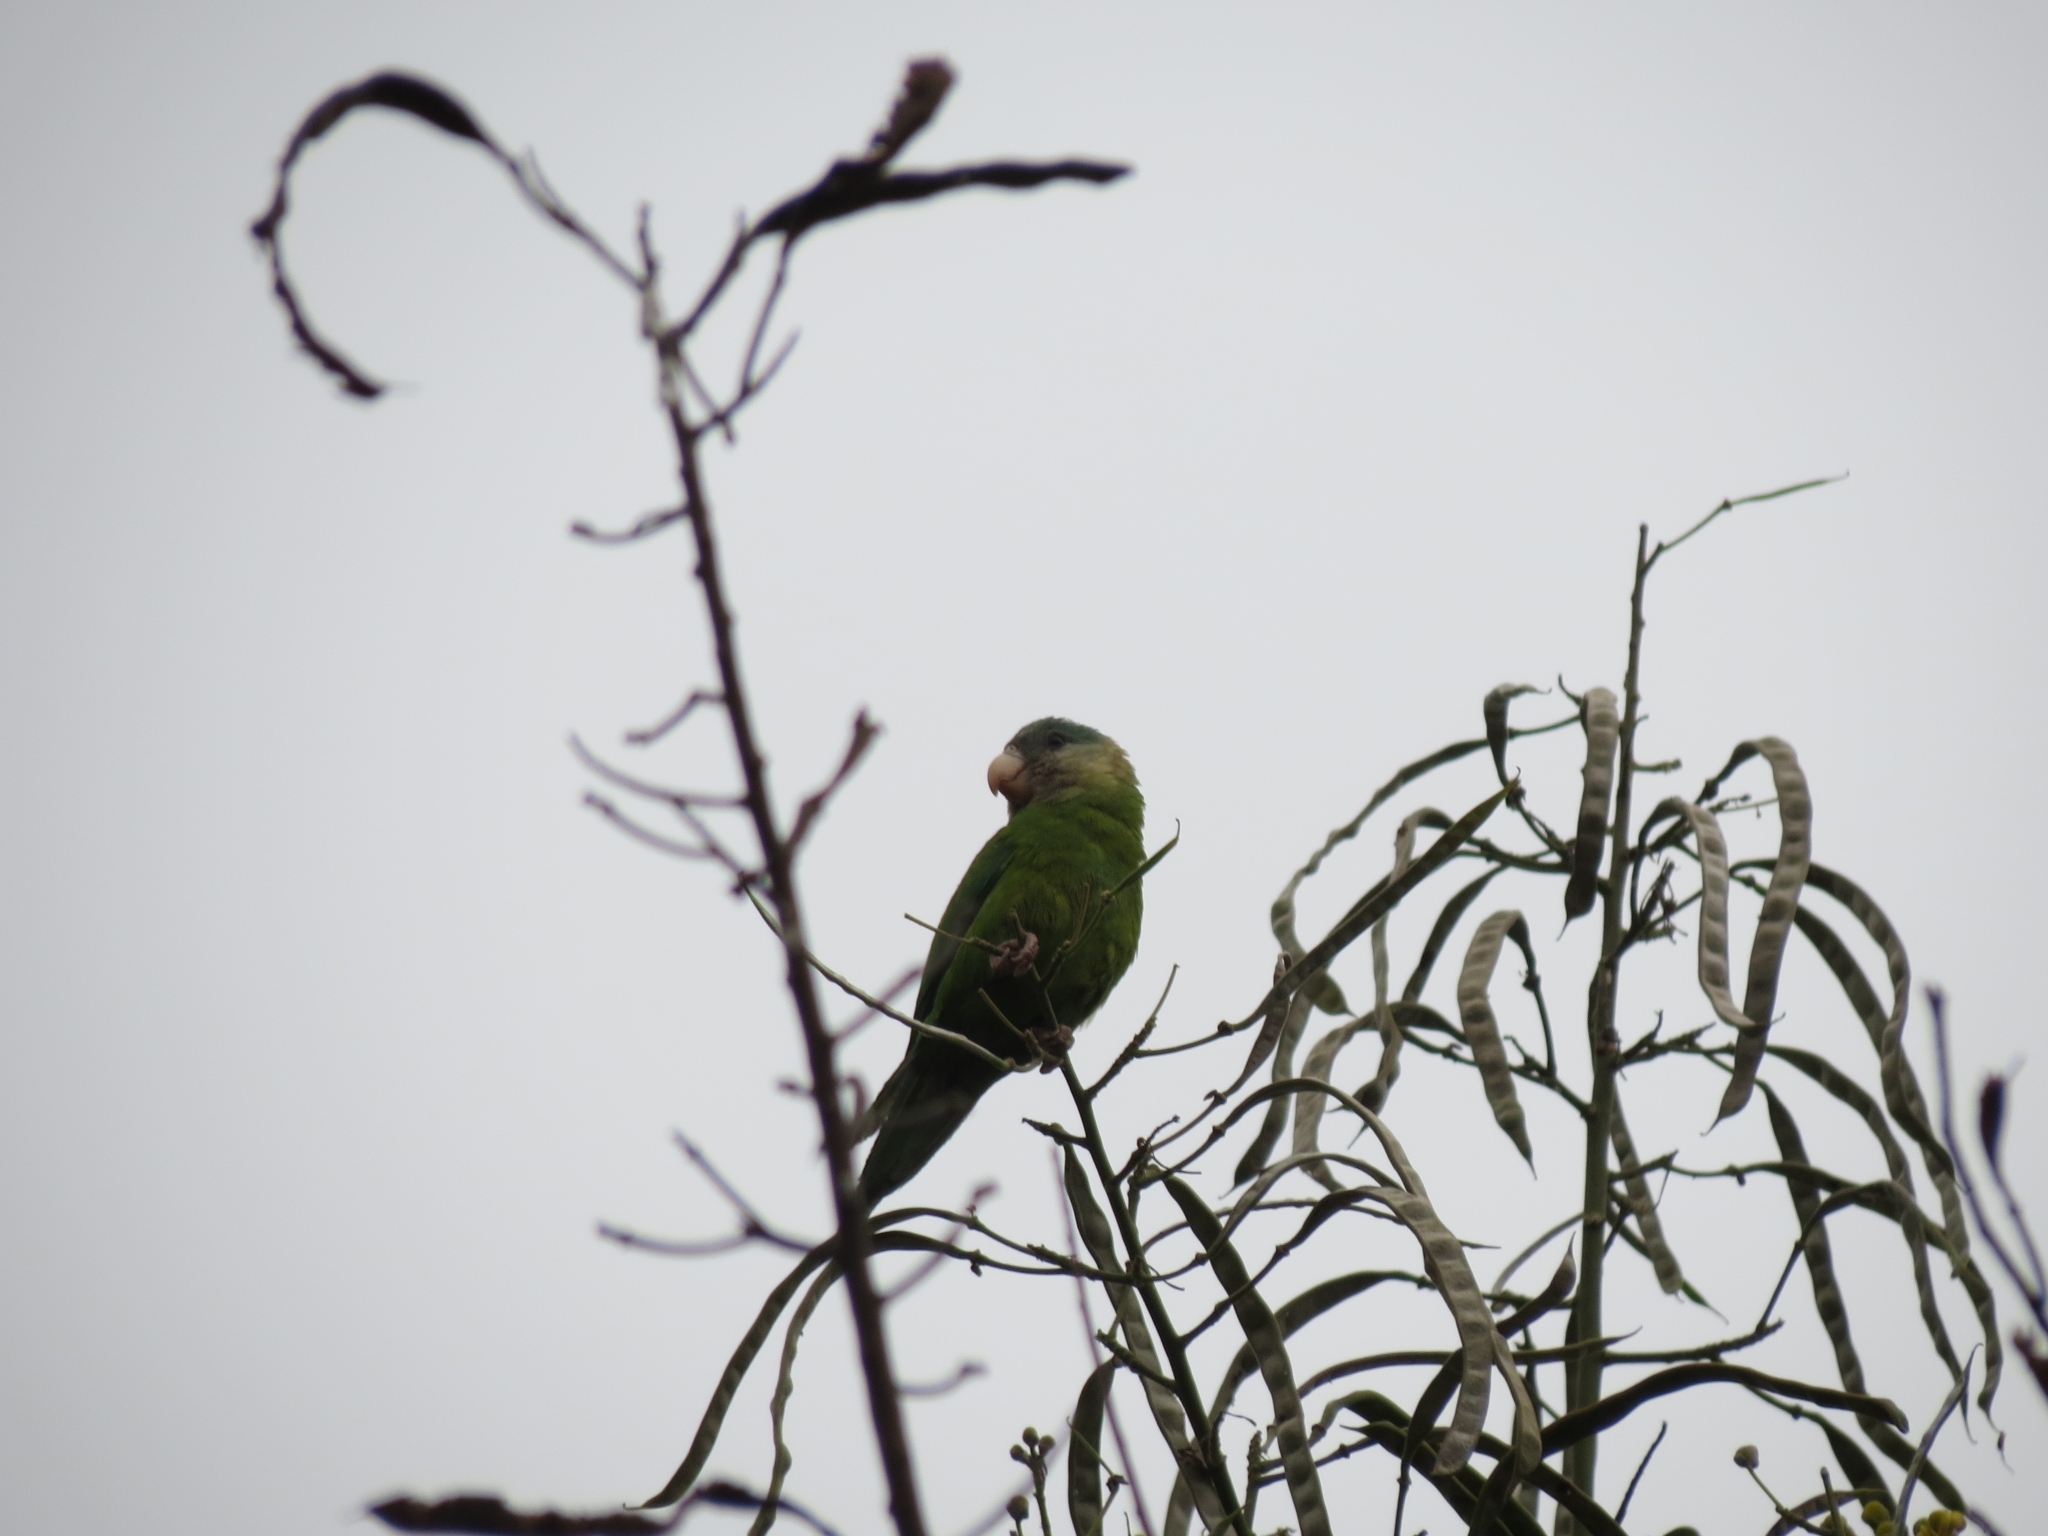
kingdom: Animalia
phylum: Chordata
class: Aves
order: Psittaciformes
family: Psittacidae
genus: Brotogeris
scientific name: Brotogeris pyrrhoptera
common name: Grey-cheeked parakeet
